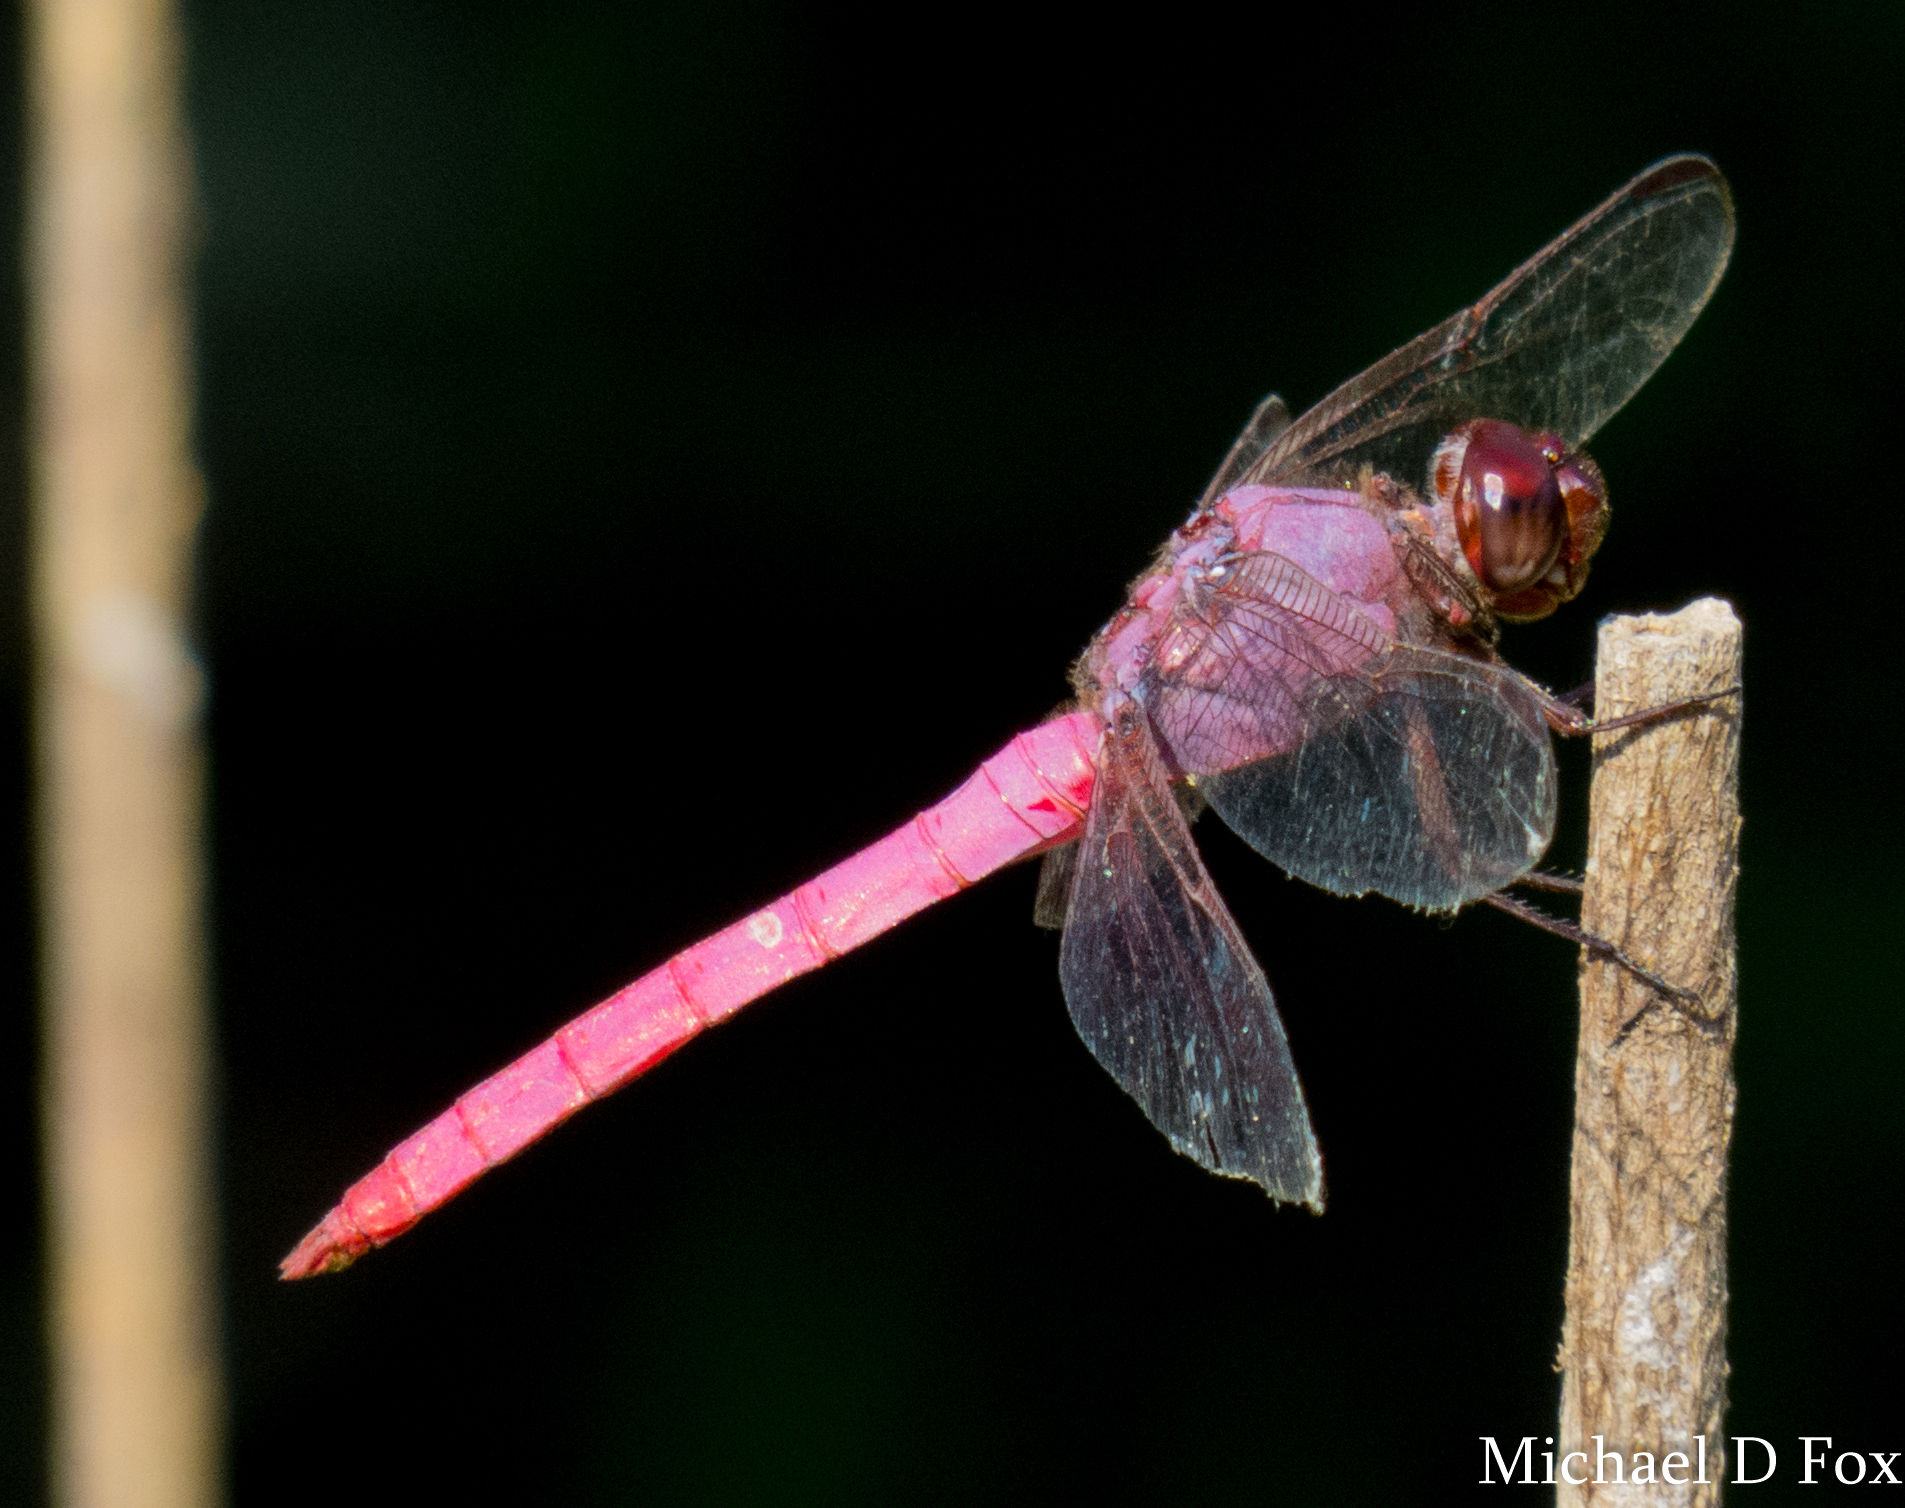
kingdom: Animalia
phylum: Arthropoda
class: Insecta
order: Odonata
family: Libellulidae
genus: Orthemis
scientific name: Orthemis ferruginea
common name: Roseate skimmer
